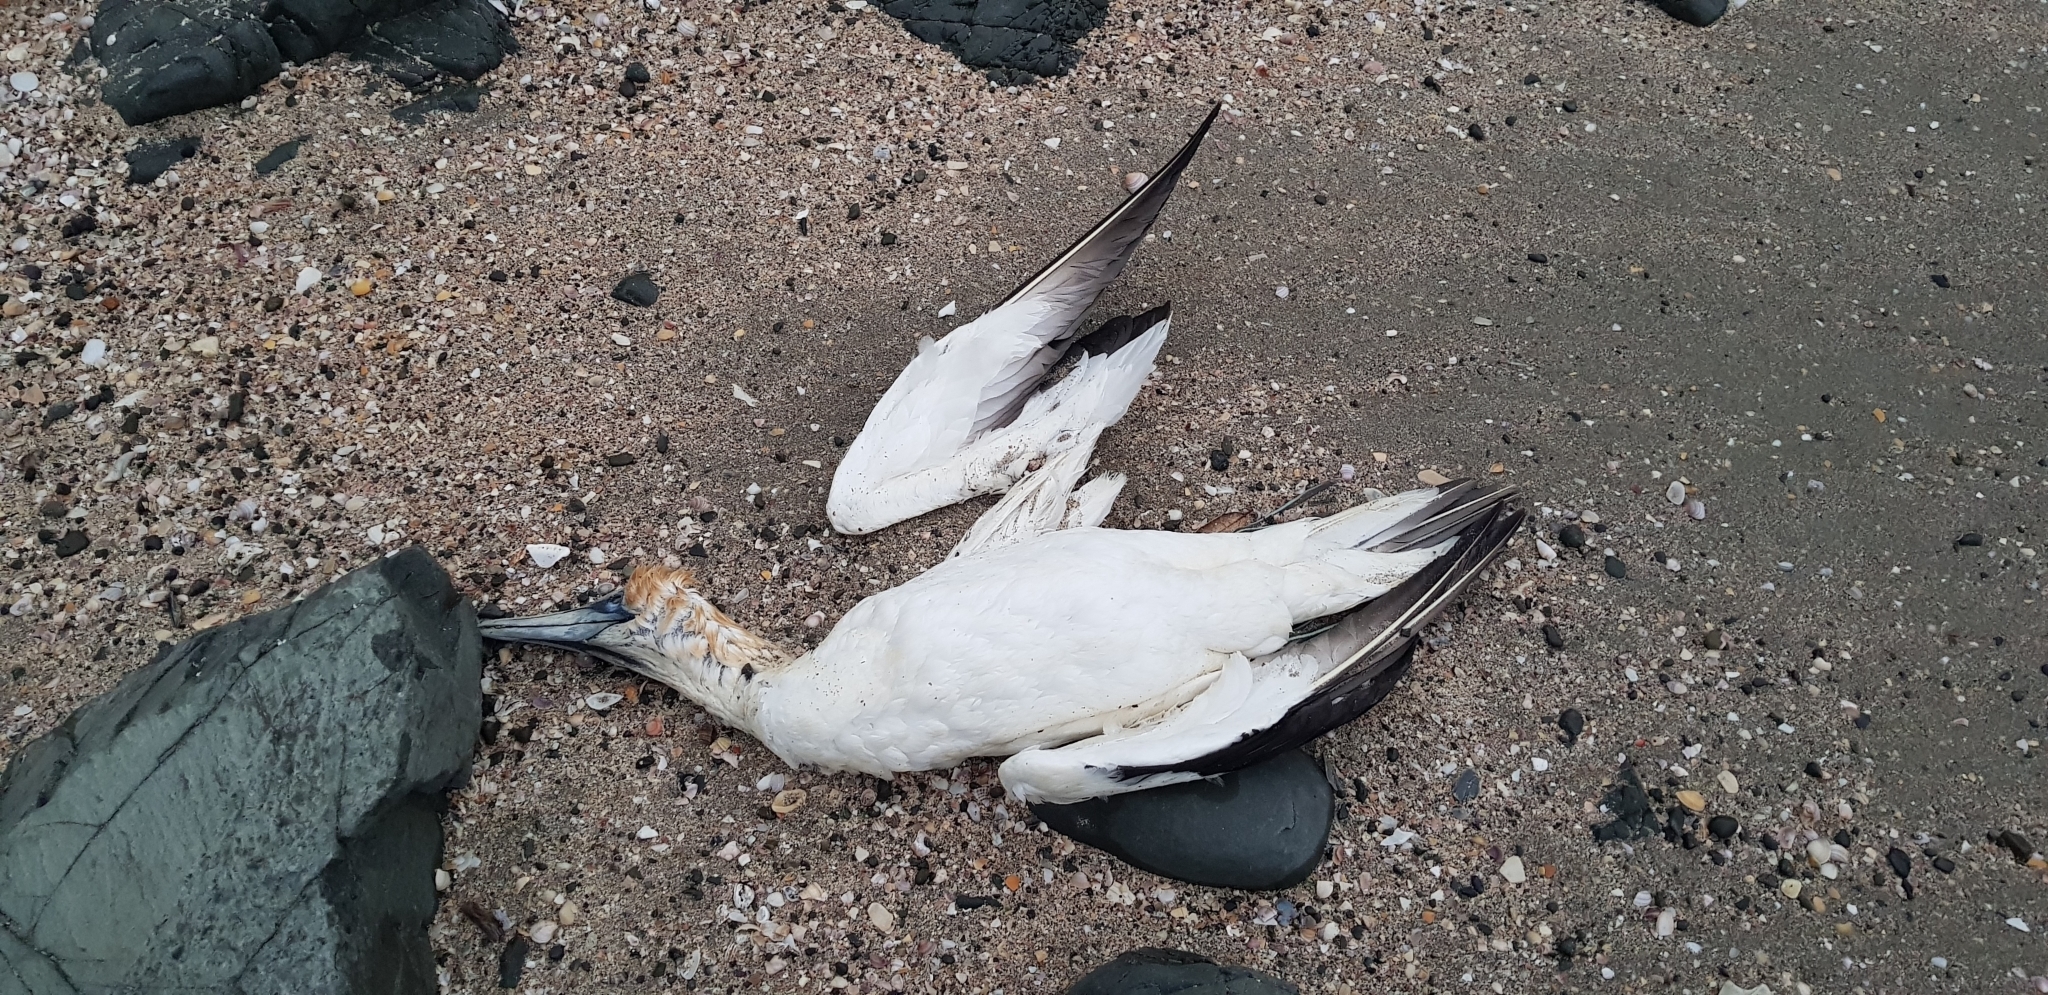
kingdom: Animalia
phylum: Chordata
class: Aves
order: Suliformes
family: Sulidae
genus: Morus
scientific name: Morus serrator
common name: Australasian gannet
